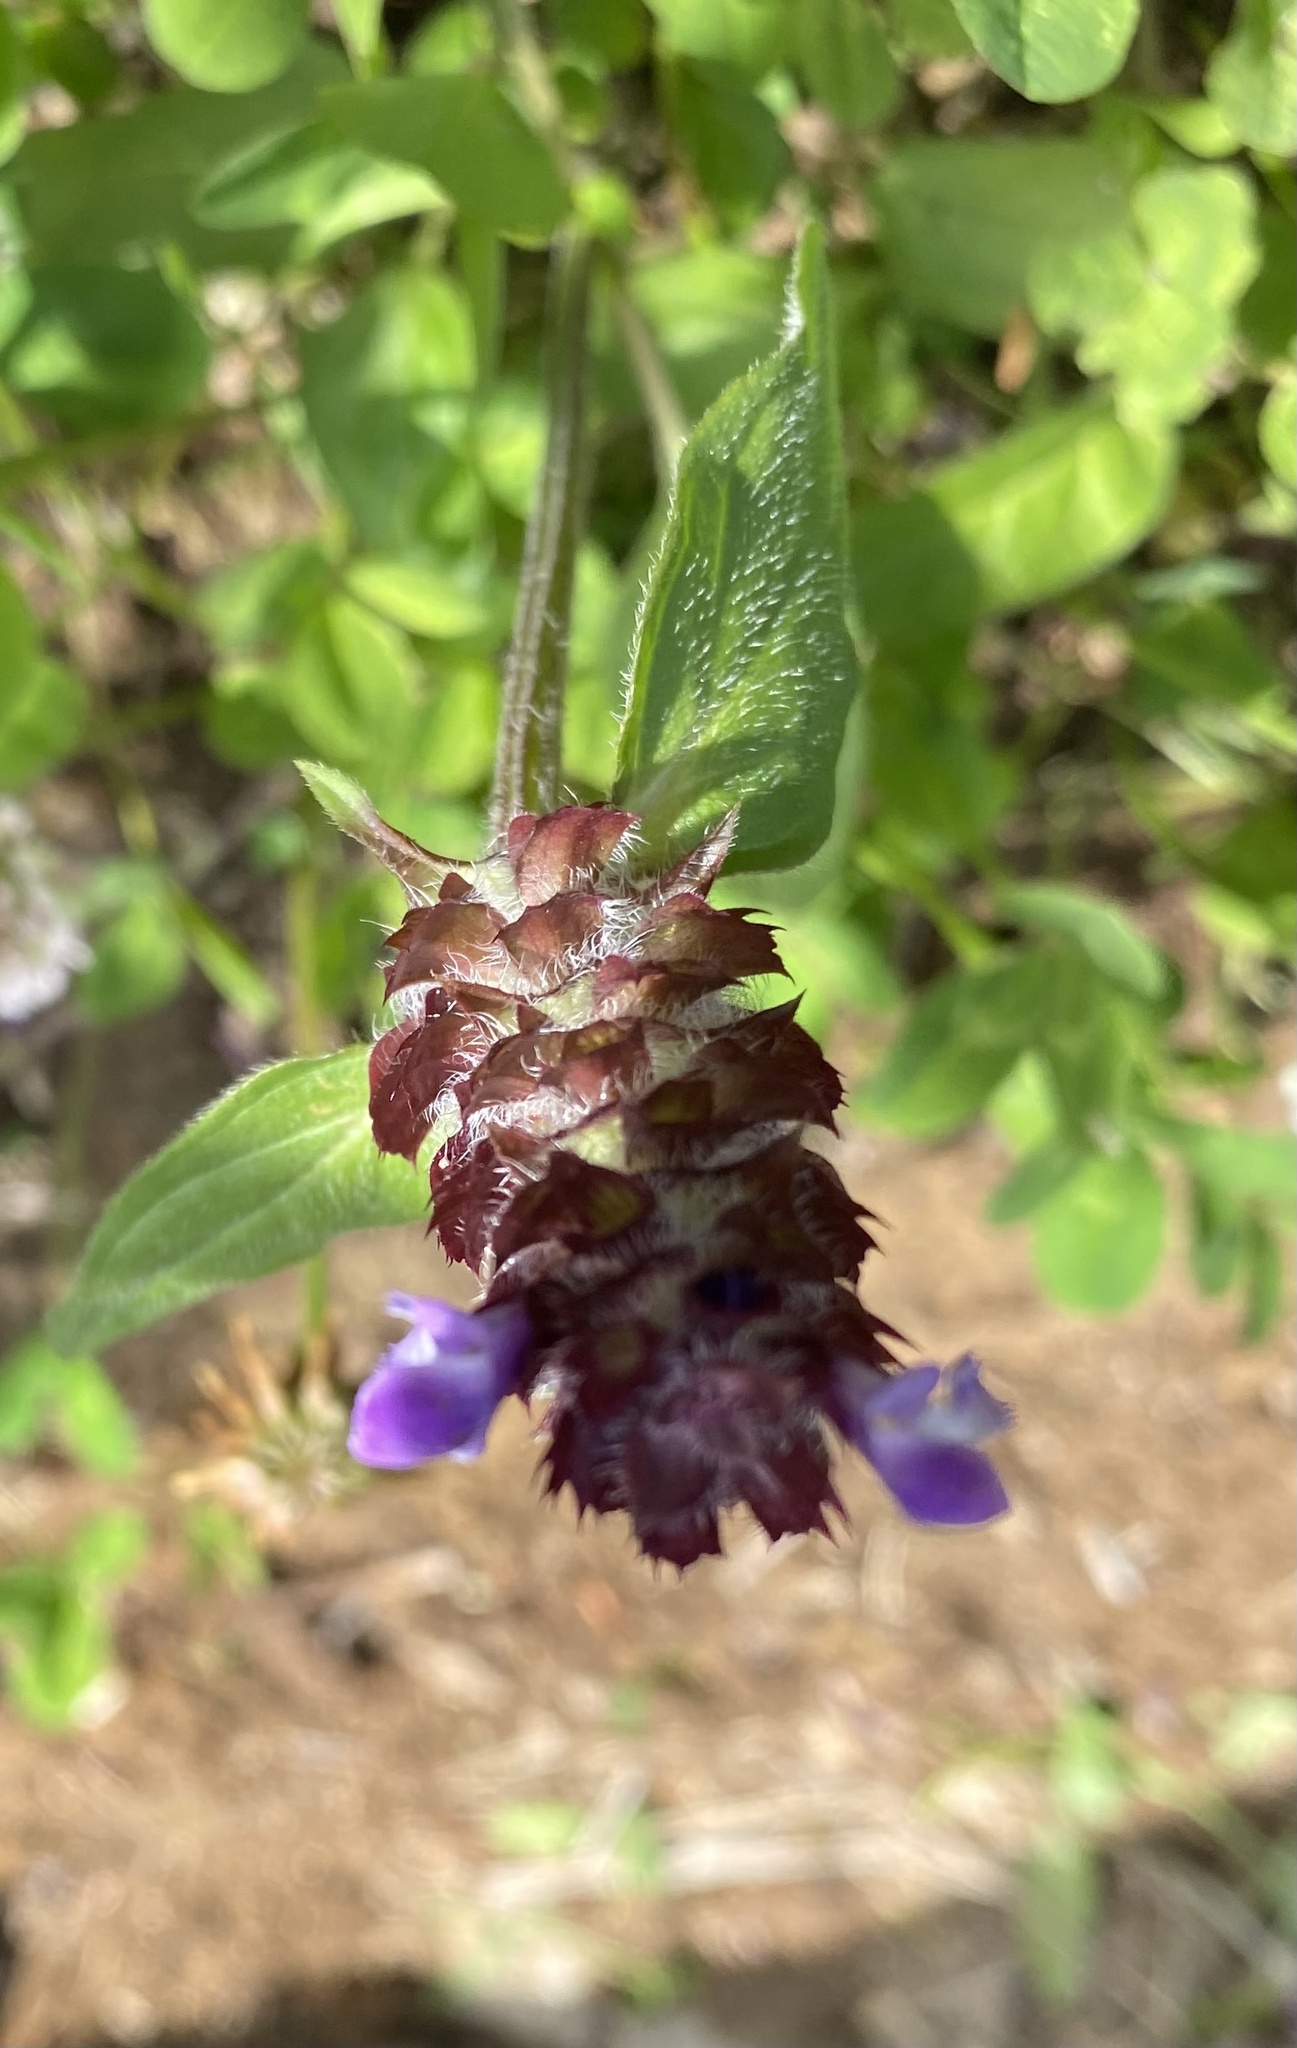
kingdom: Plantae
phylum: Tracheophyta
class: Magnoliopsida
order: Lamiales
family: Lamiaceae
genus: Prunella
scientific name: Prunella vulgaris
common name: Heal-all
